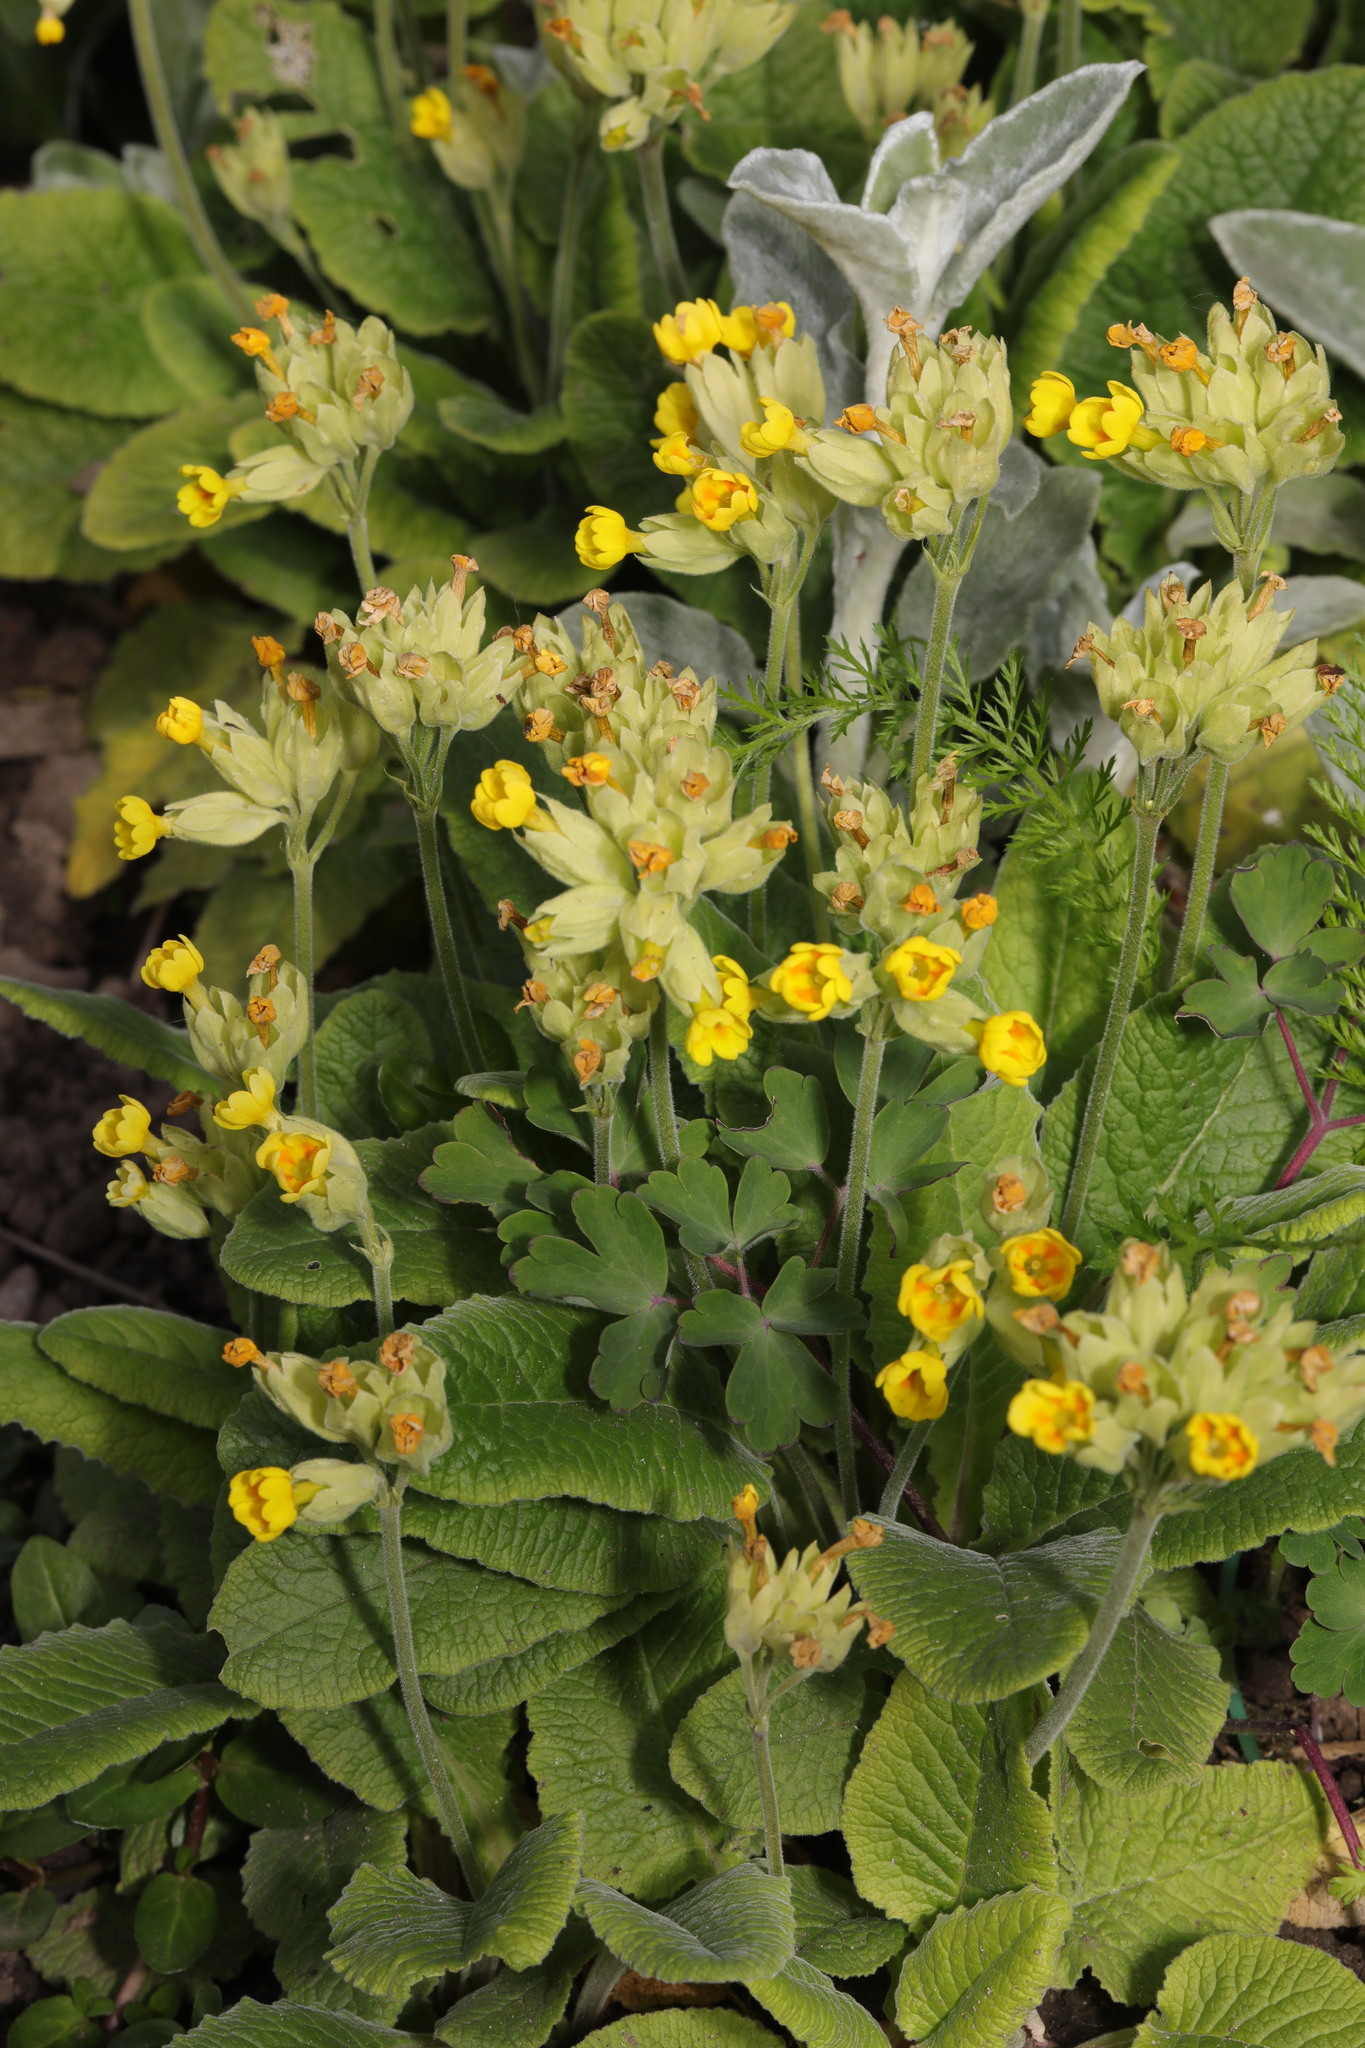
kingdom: Plantae
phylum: Tracheophyta
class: Magnoliopsida
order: Ericales
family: Primulaceae
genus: Primula
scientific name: Primula veris
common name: Cowslip
